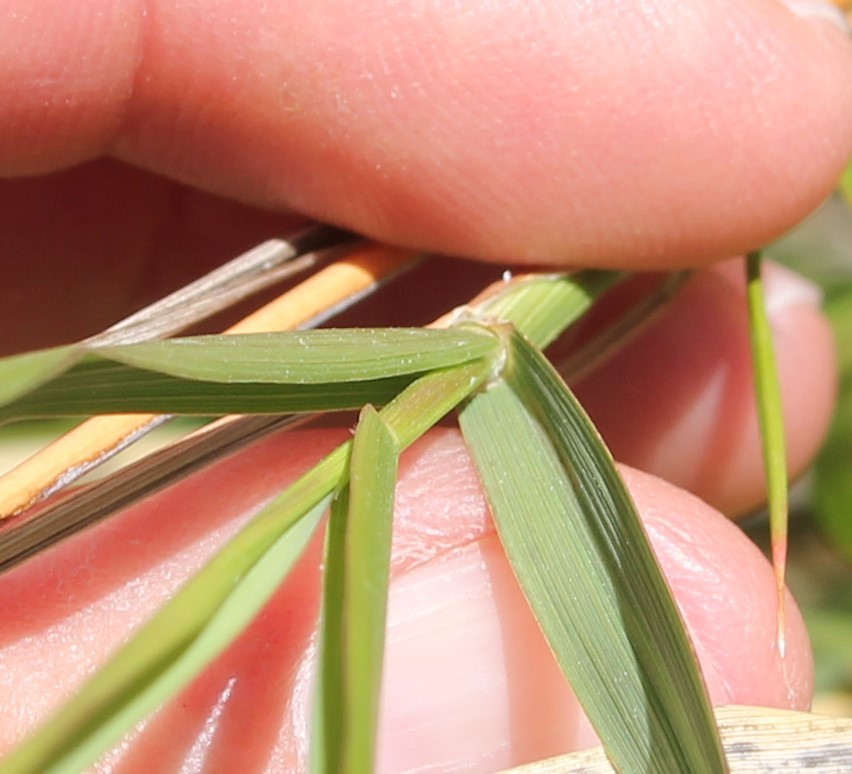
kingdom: Plantae
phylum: Tracheophyta
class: Liliopsida
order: Poales
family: Poaceae
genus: Oloptum
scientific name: Oloptum miliaceum
